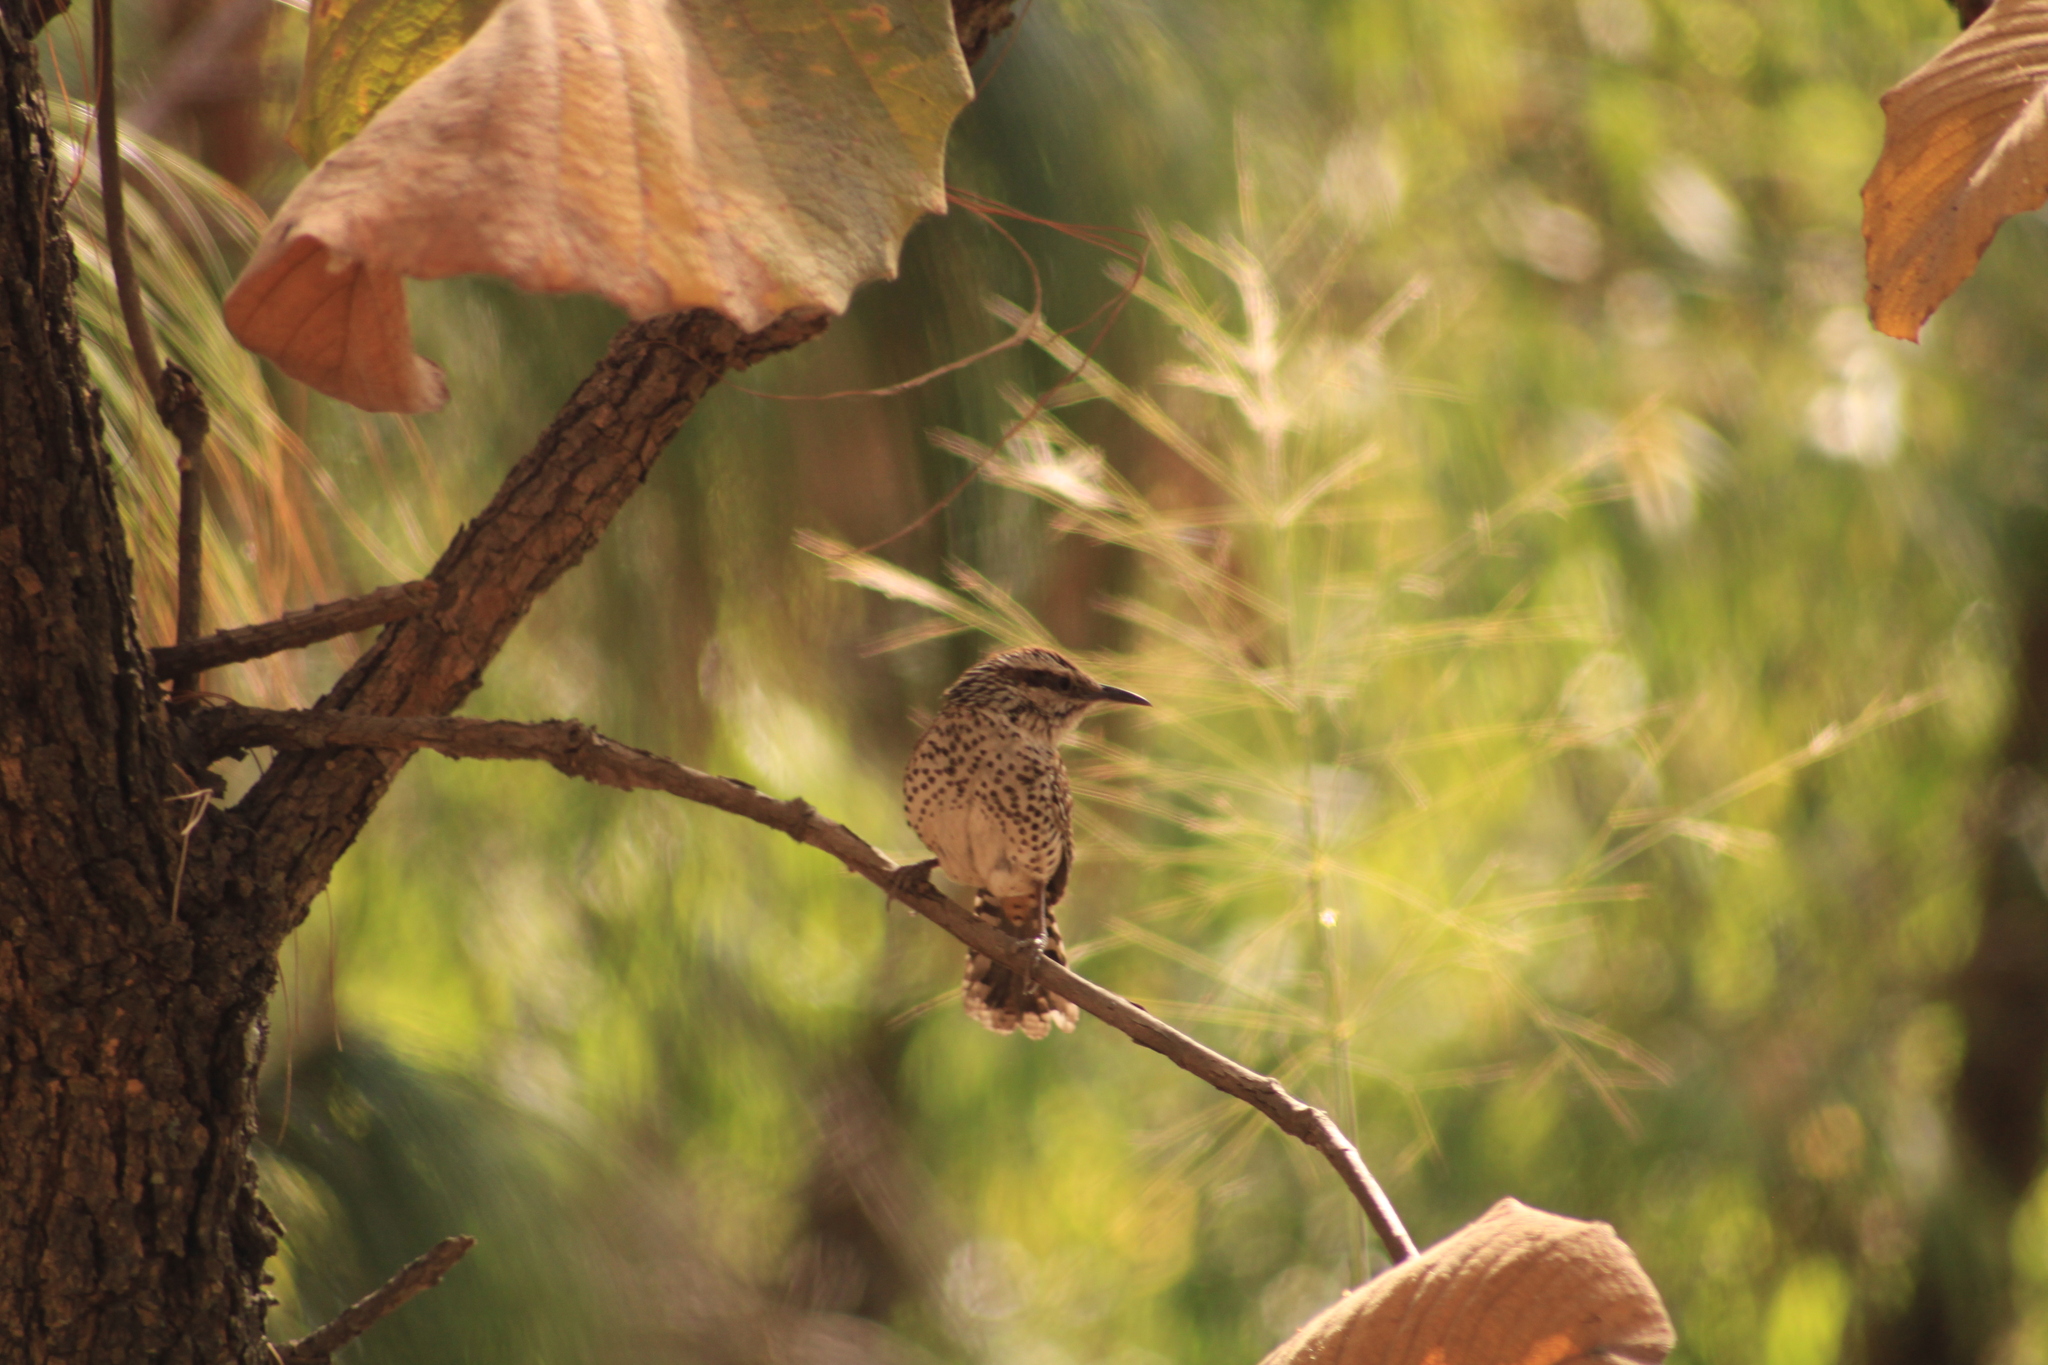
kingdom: Animalia
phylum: Chordata
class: Aves
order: Passeriformes
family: Troglodytidae
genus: Campylorhynchus
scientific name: Campylorhynchus gularis
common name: Spotted wren
